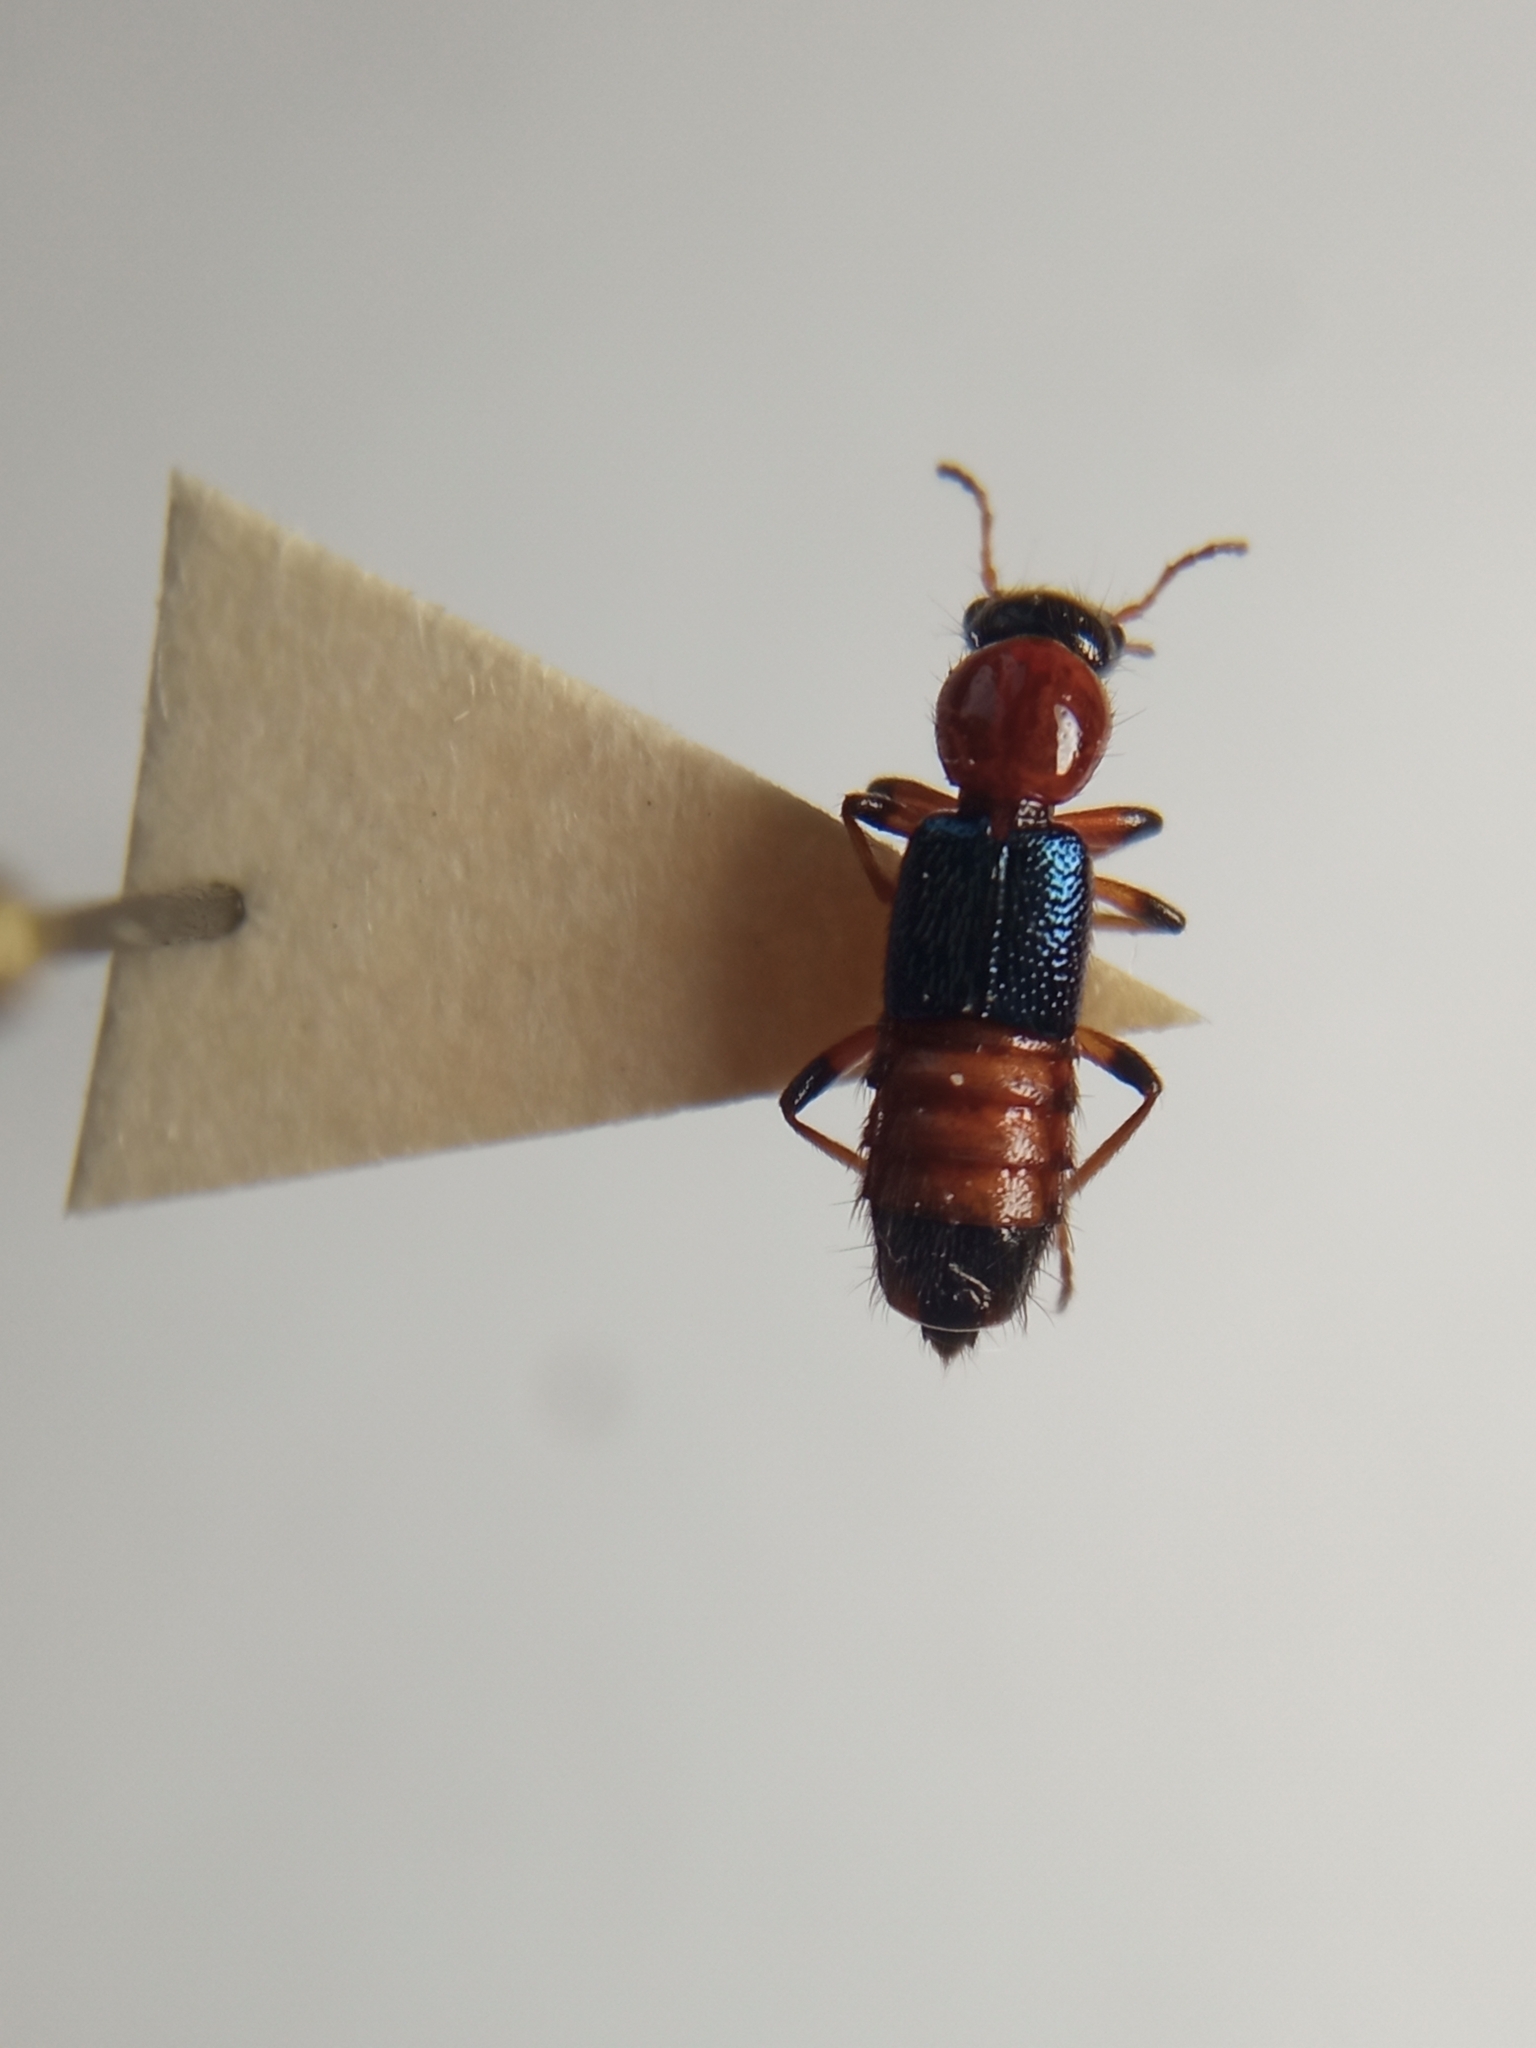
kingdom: Animalia
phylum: Arthropoda
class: Insecta
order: Coleoptera
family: Staphylinidae
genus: Paederus
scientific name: Paederus littoralis
